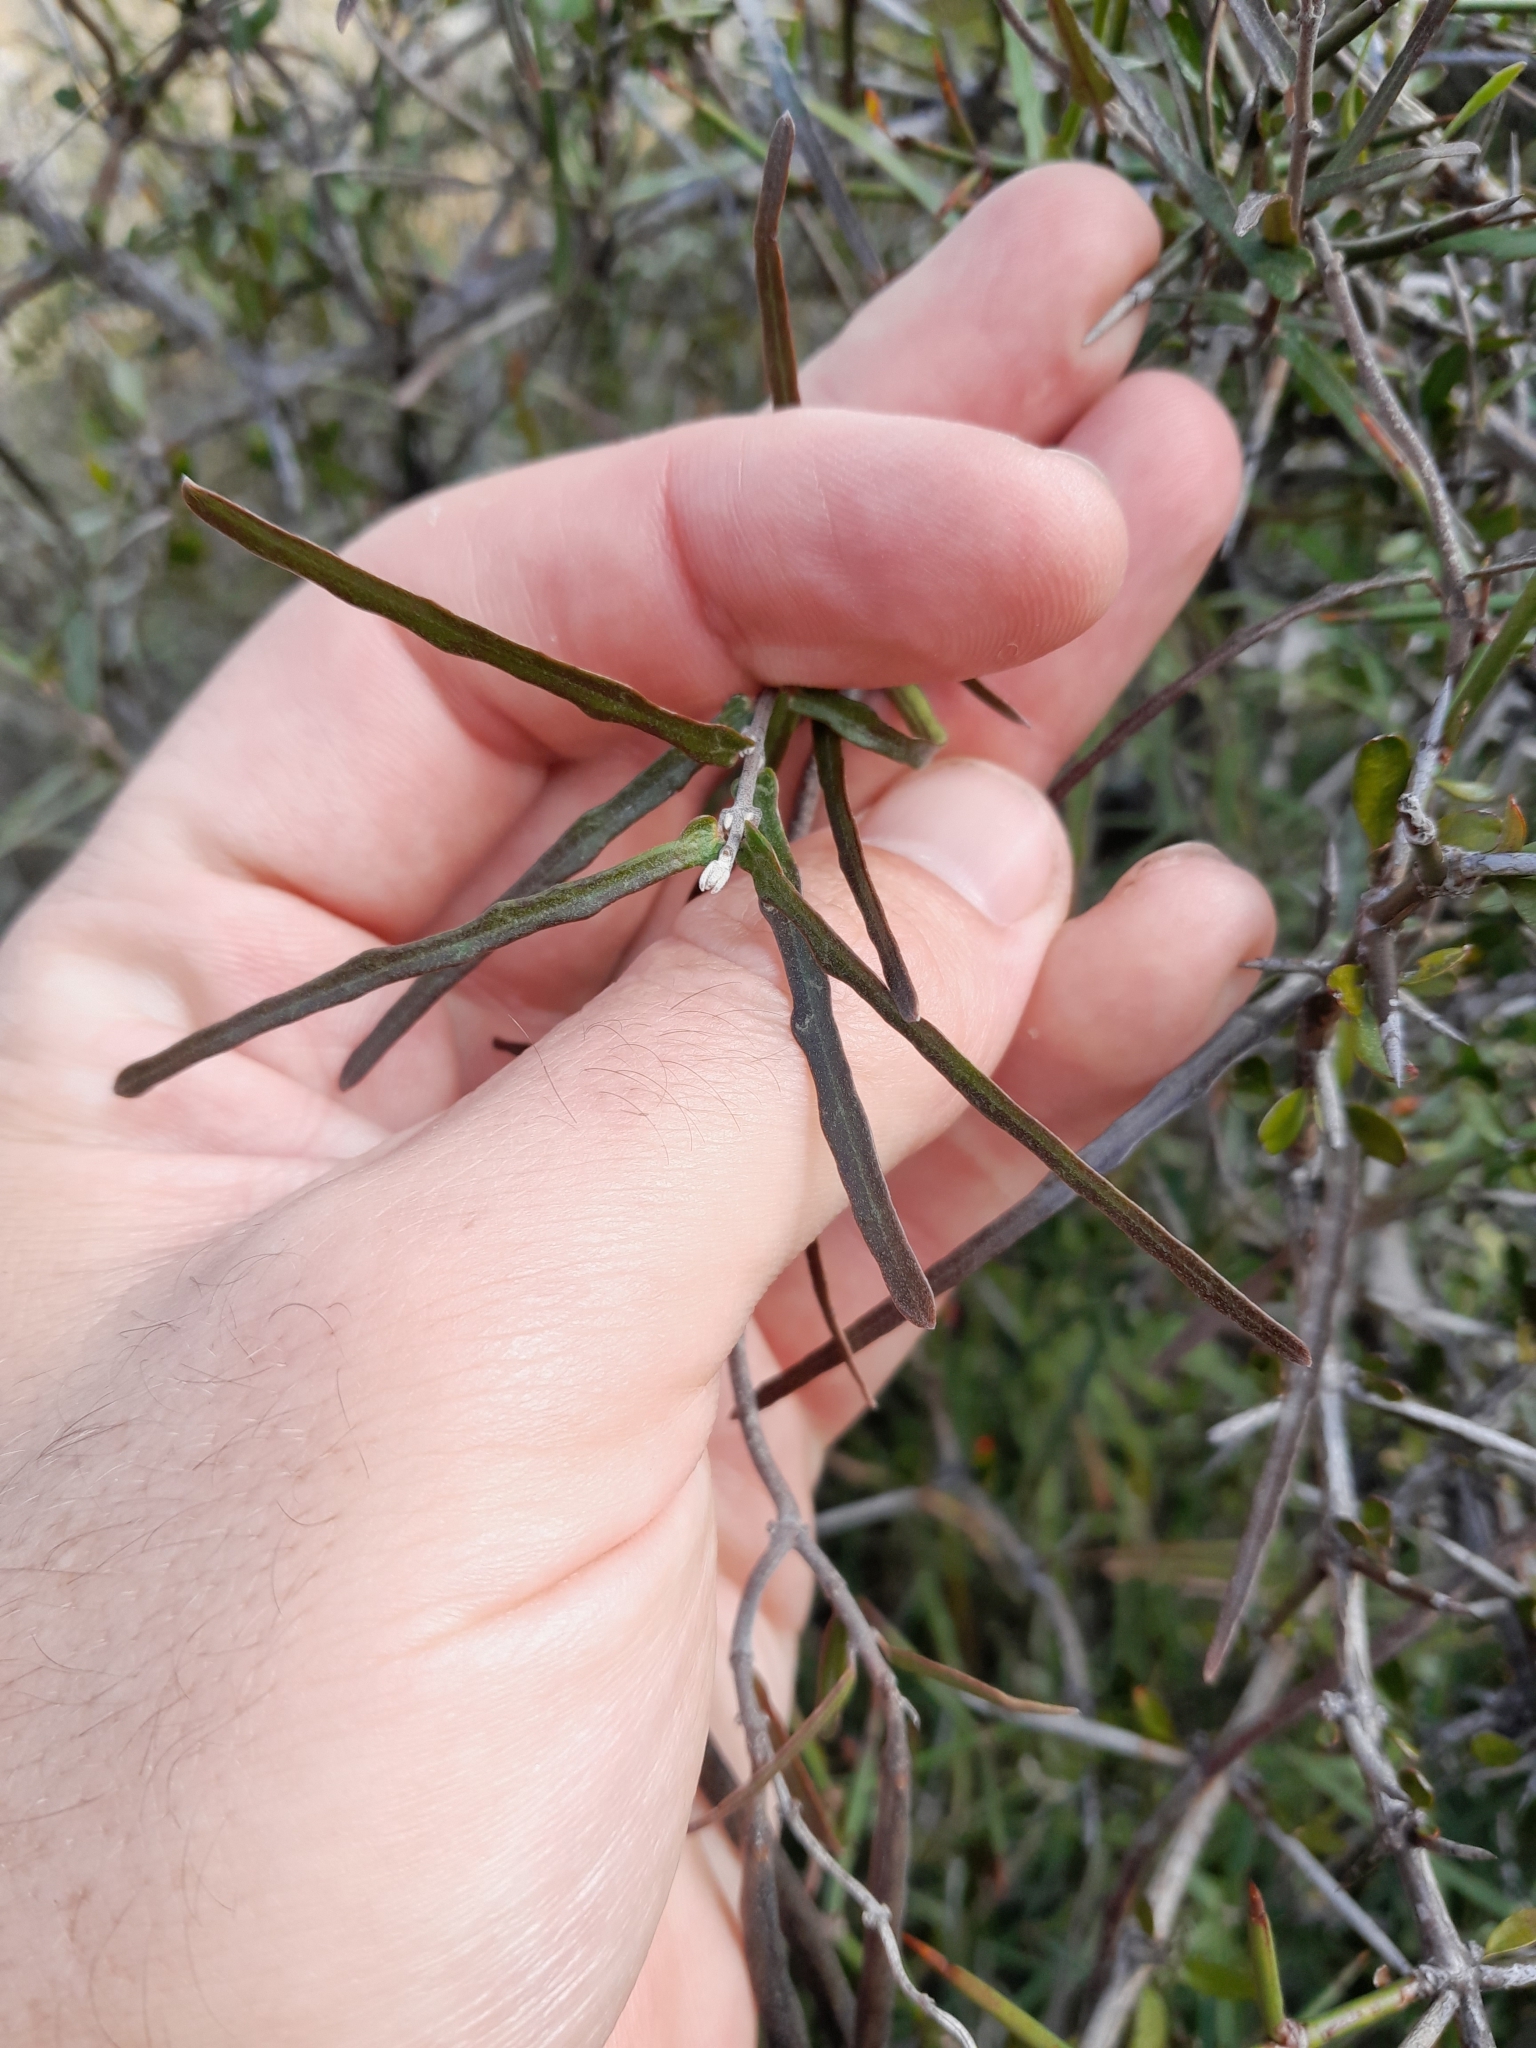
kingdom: Plantae
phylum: Tracheophyta
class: Magnoliopsida
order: Gentianales
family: Apocynaceae
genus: Parsonsia
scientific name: Parsonsia capsularis
